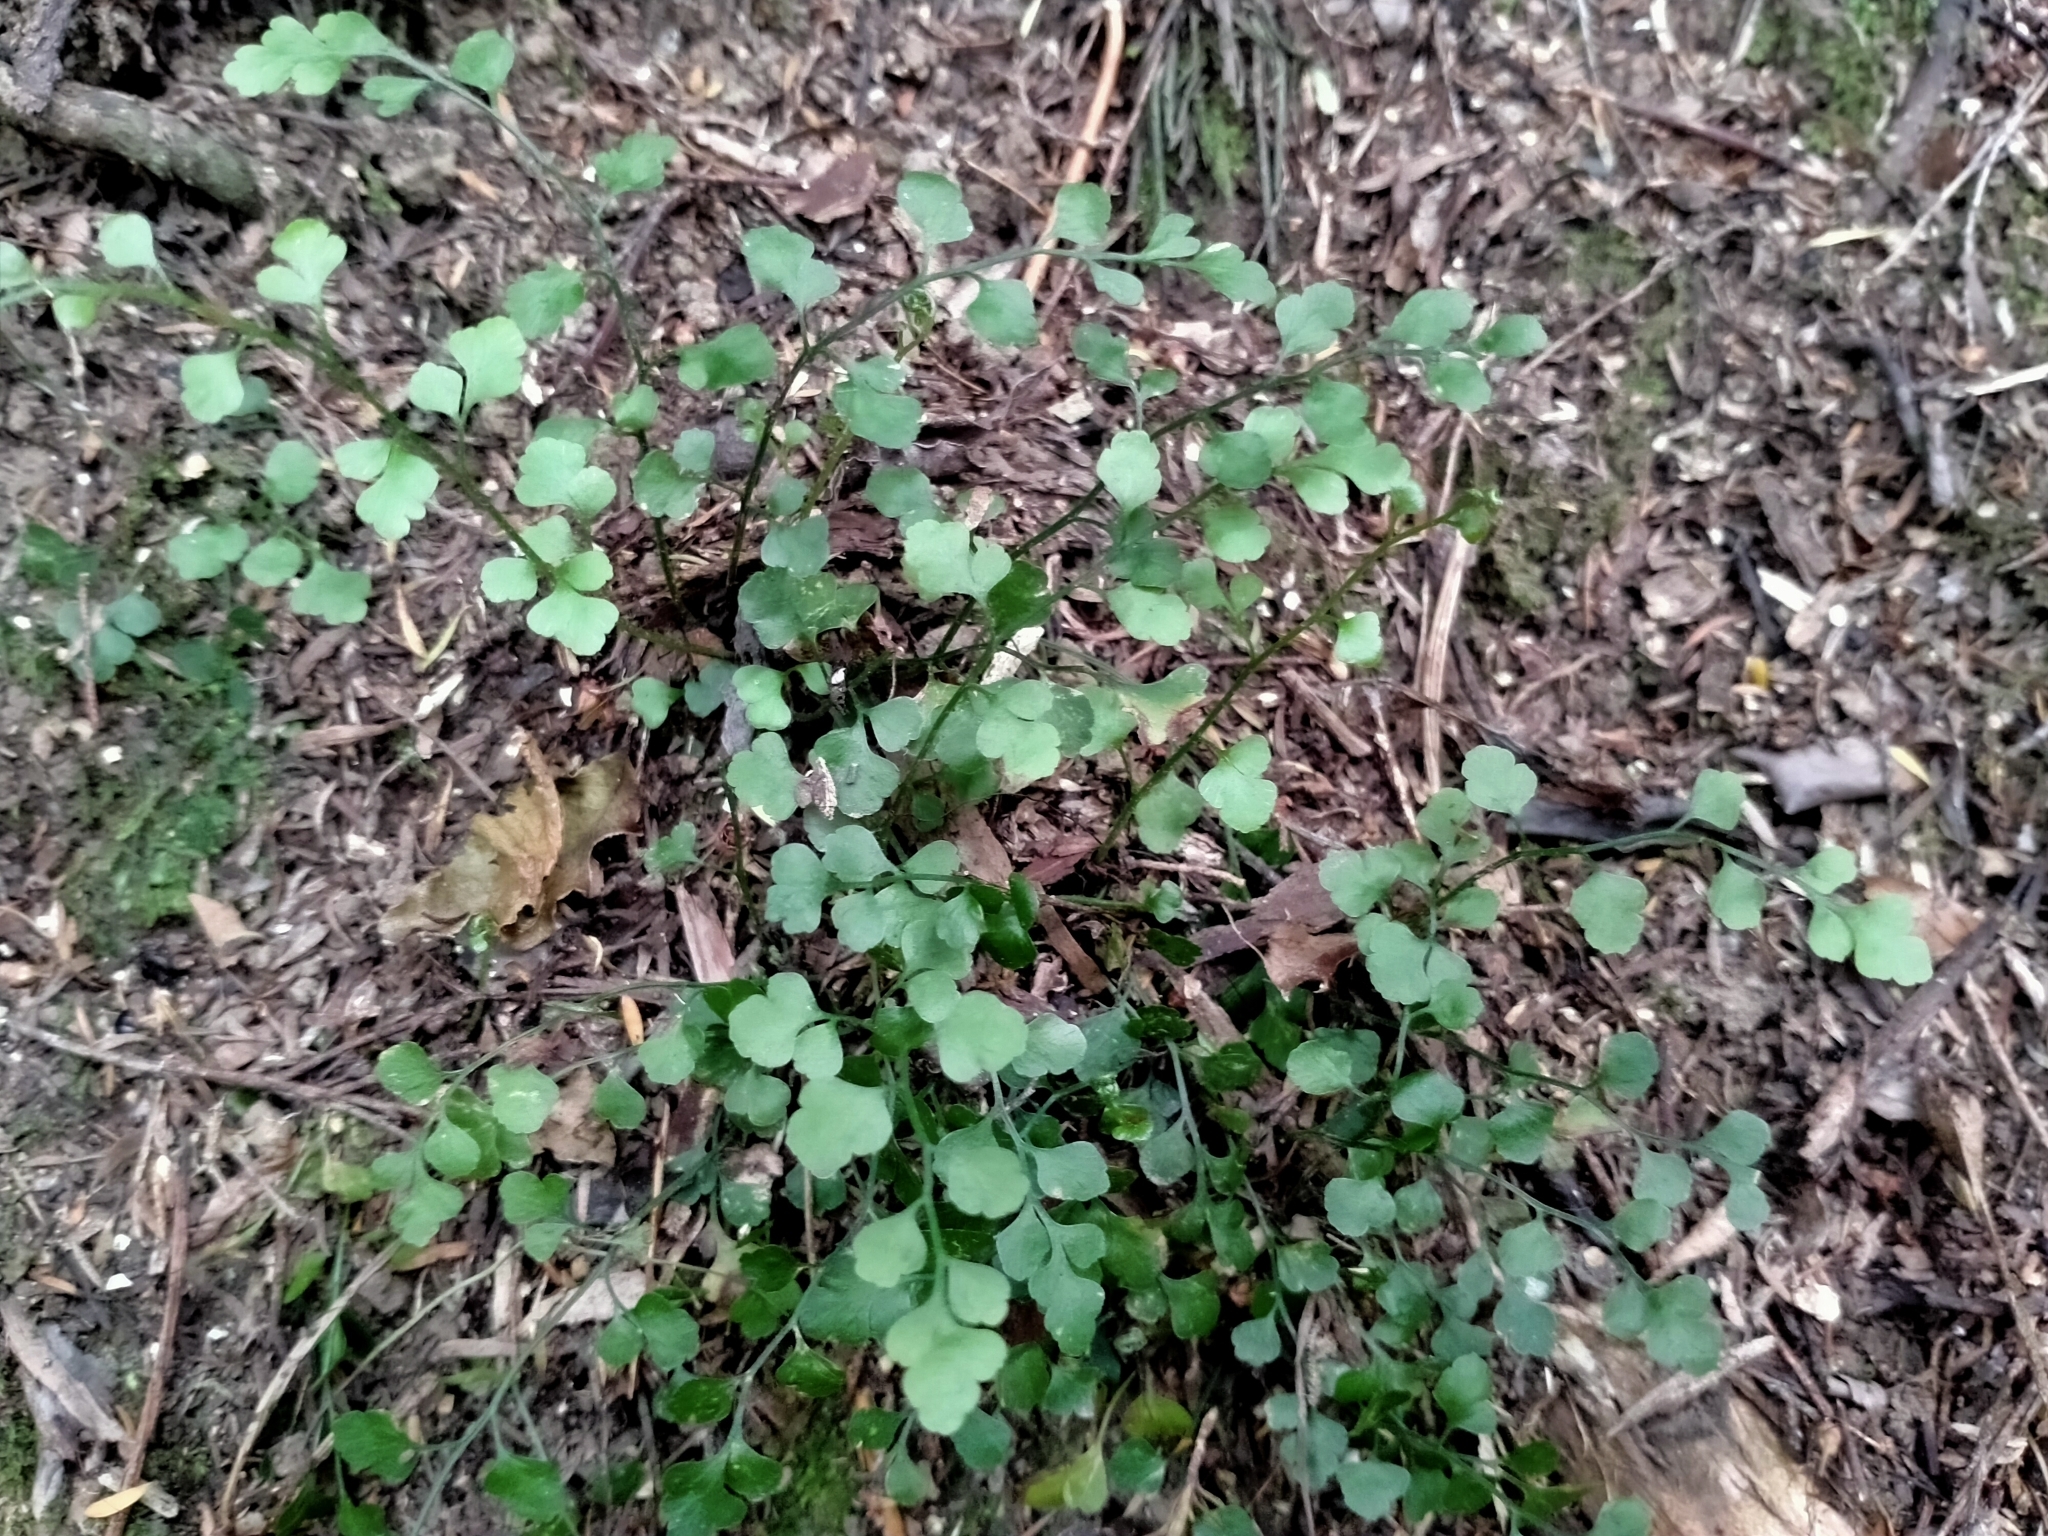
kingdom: Plantae
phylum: Tracheophyta
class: Polypodiopsida
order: Polypodiales
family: Aspleniaceae
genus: Asplenium
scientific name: Asplenium hookerianum
